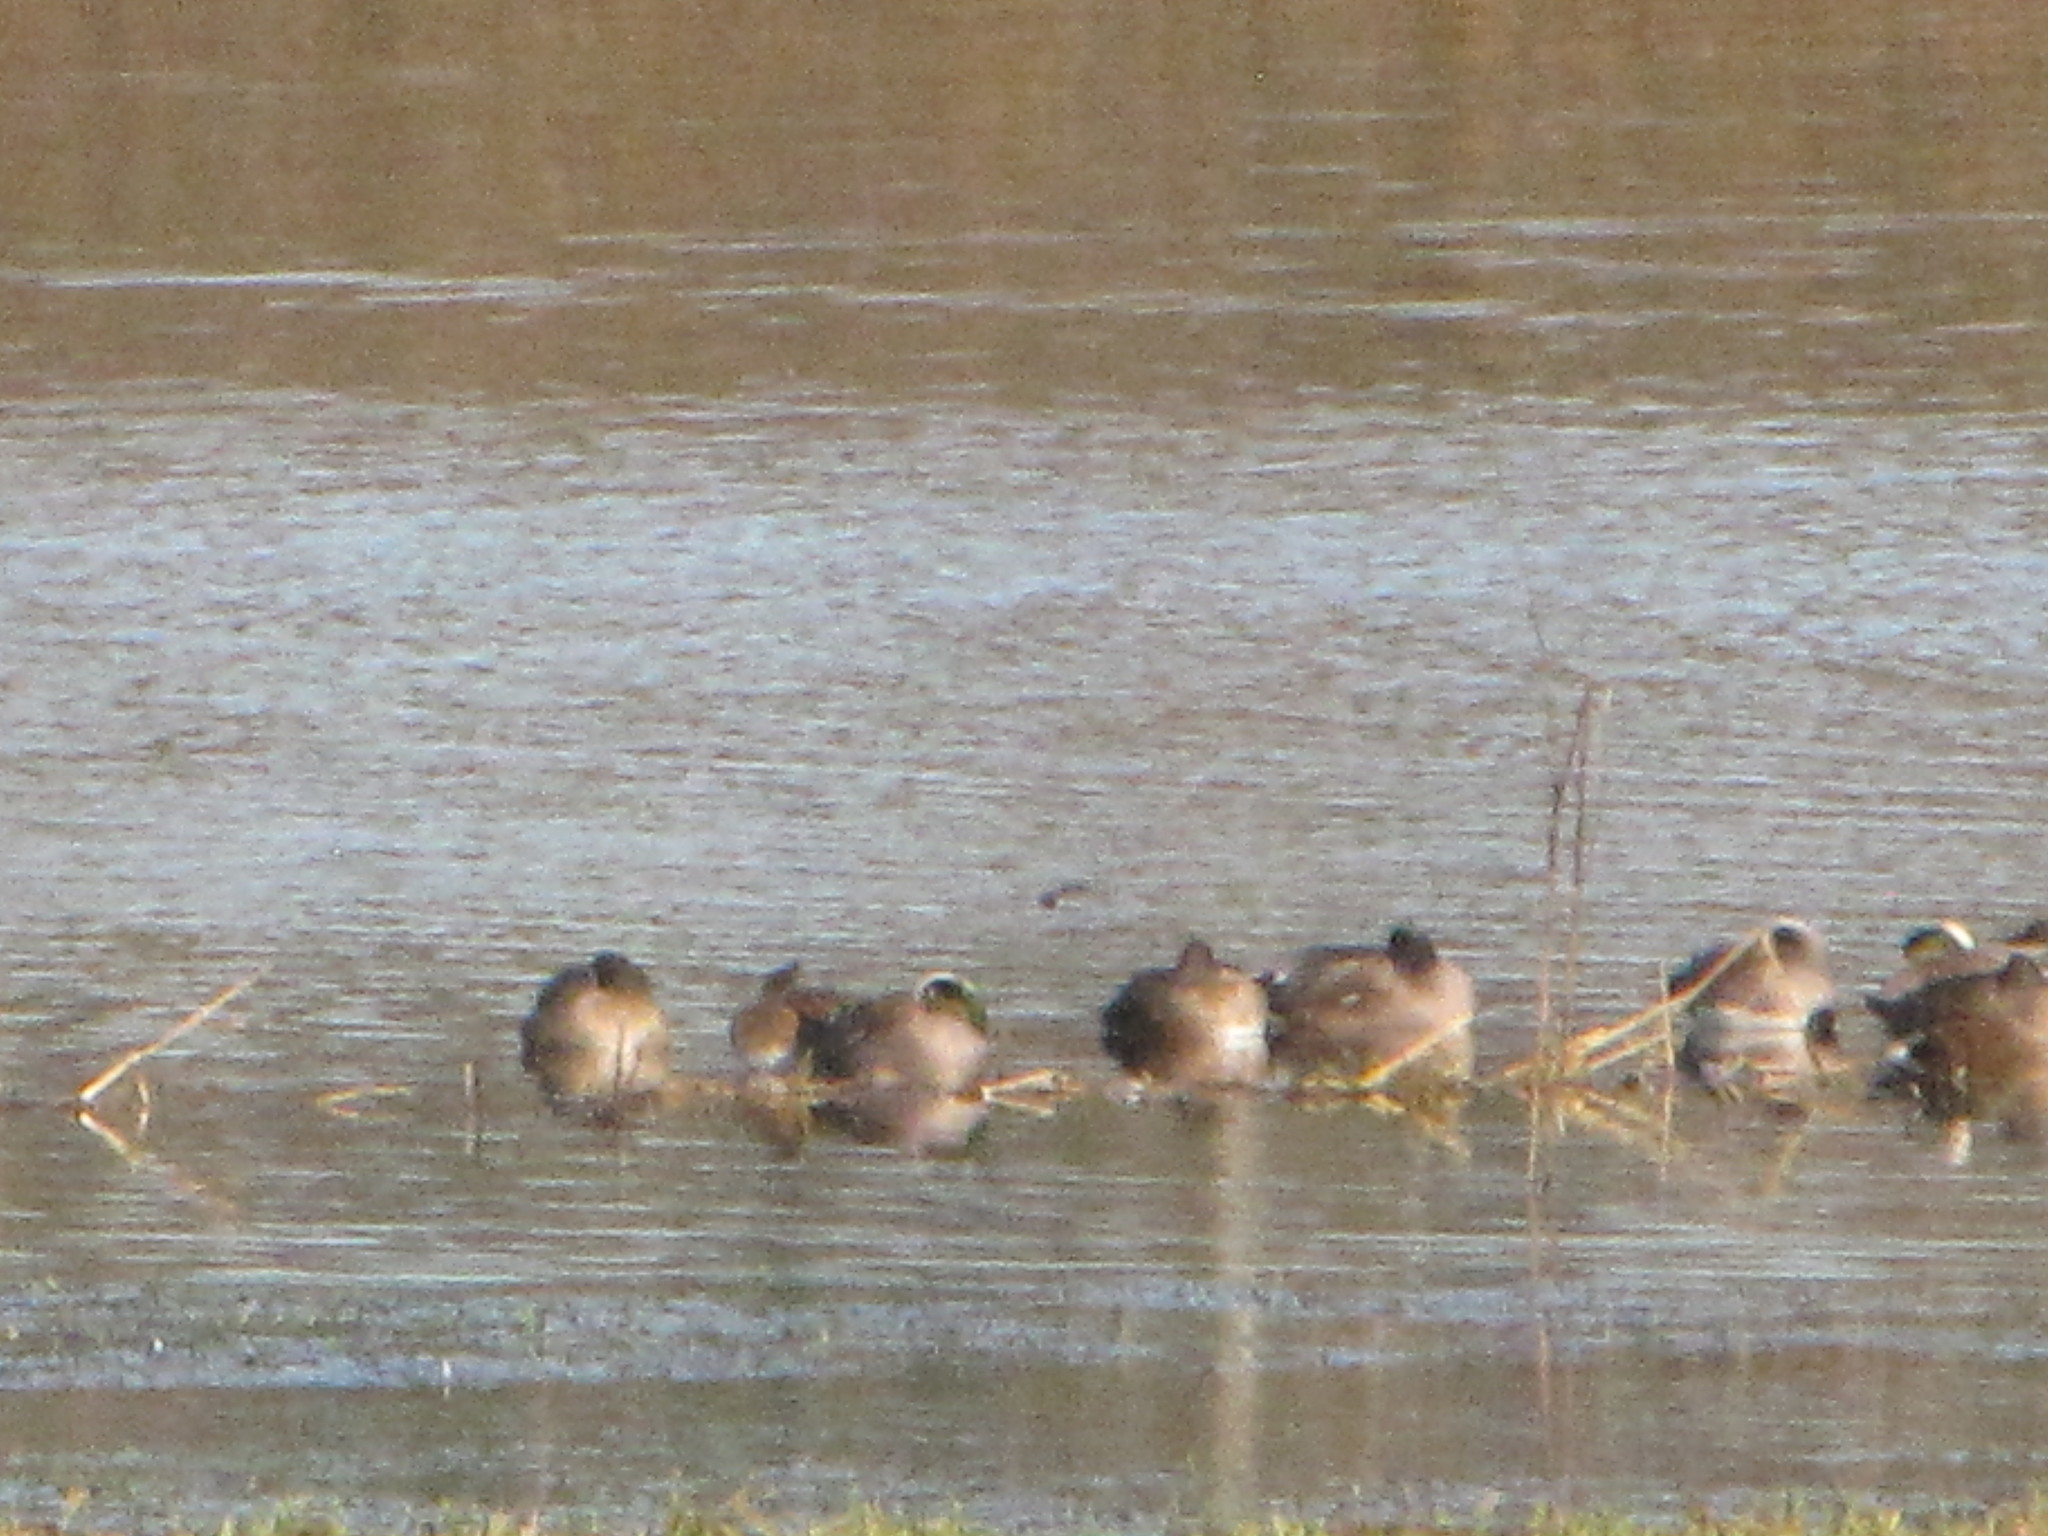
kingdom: Animalia
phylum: Chordata
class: Aves
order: Anseriformes
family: Anatidae
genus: Mareca
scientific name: Mareca americana
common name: American wigeon
